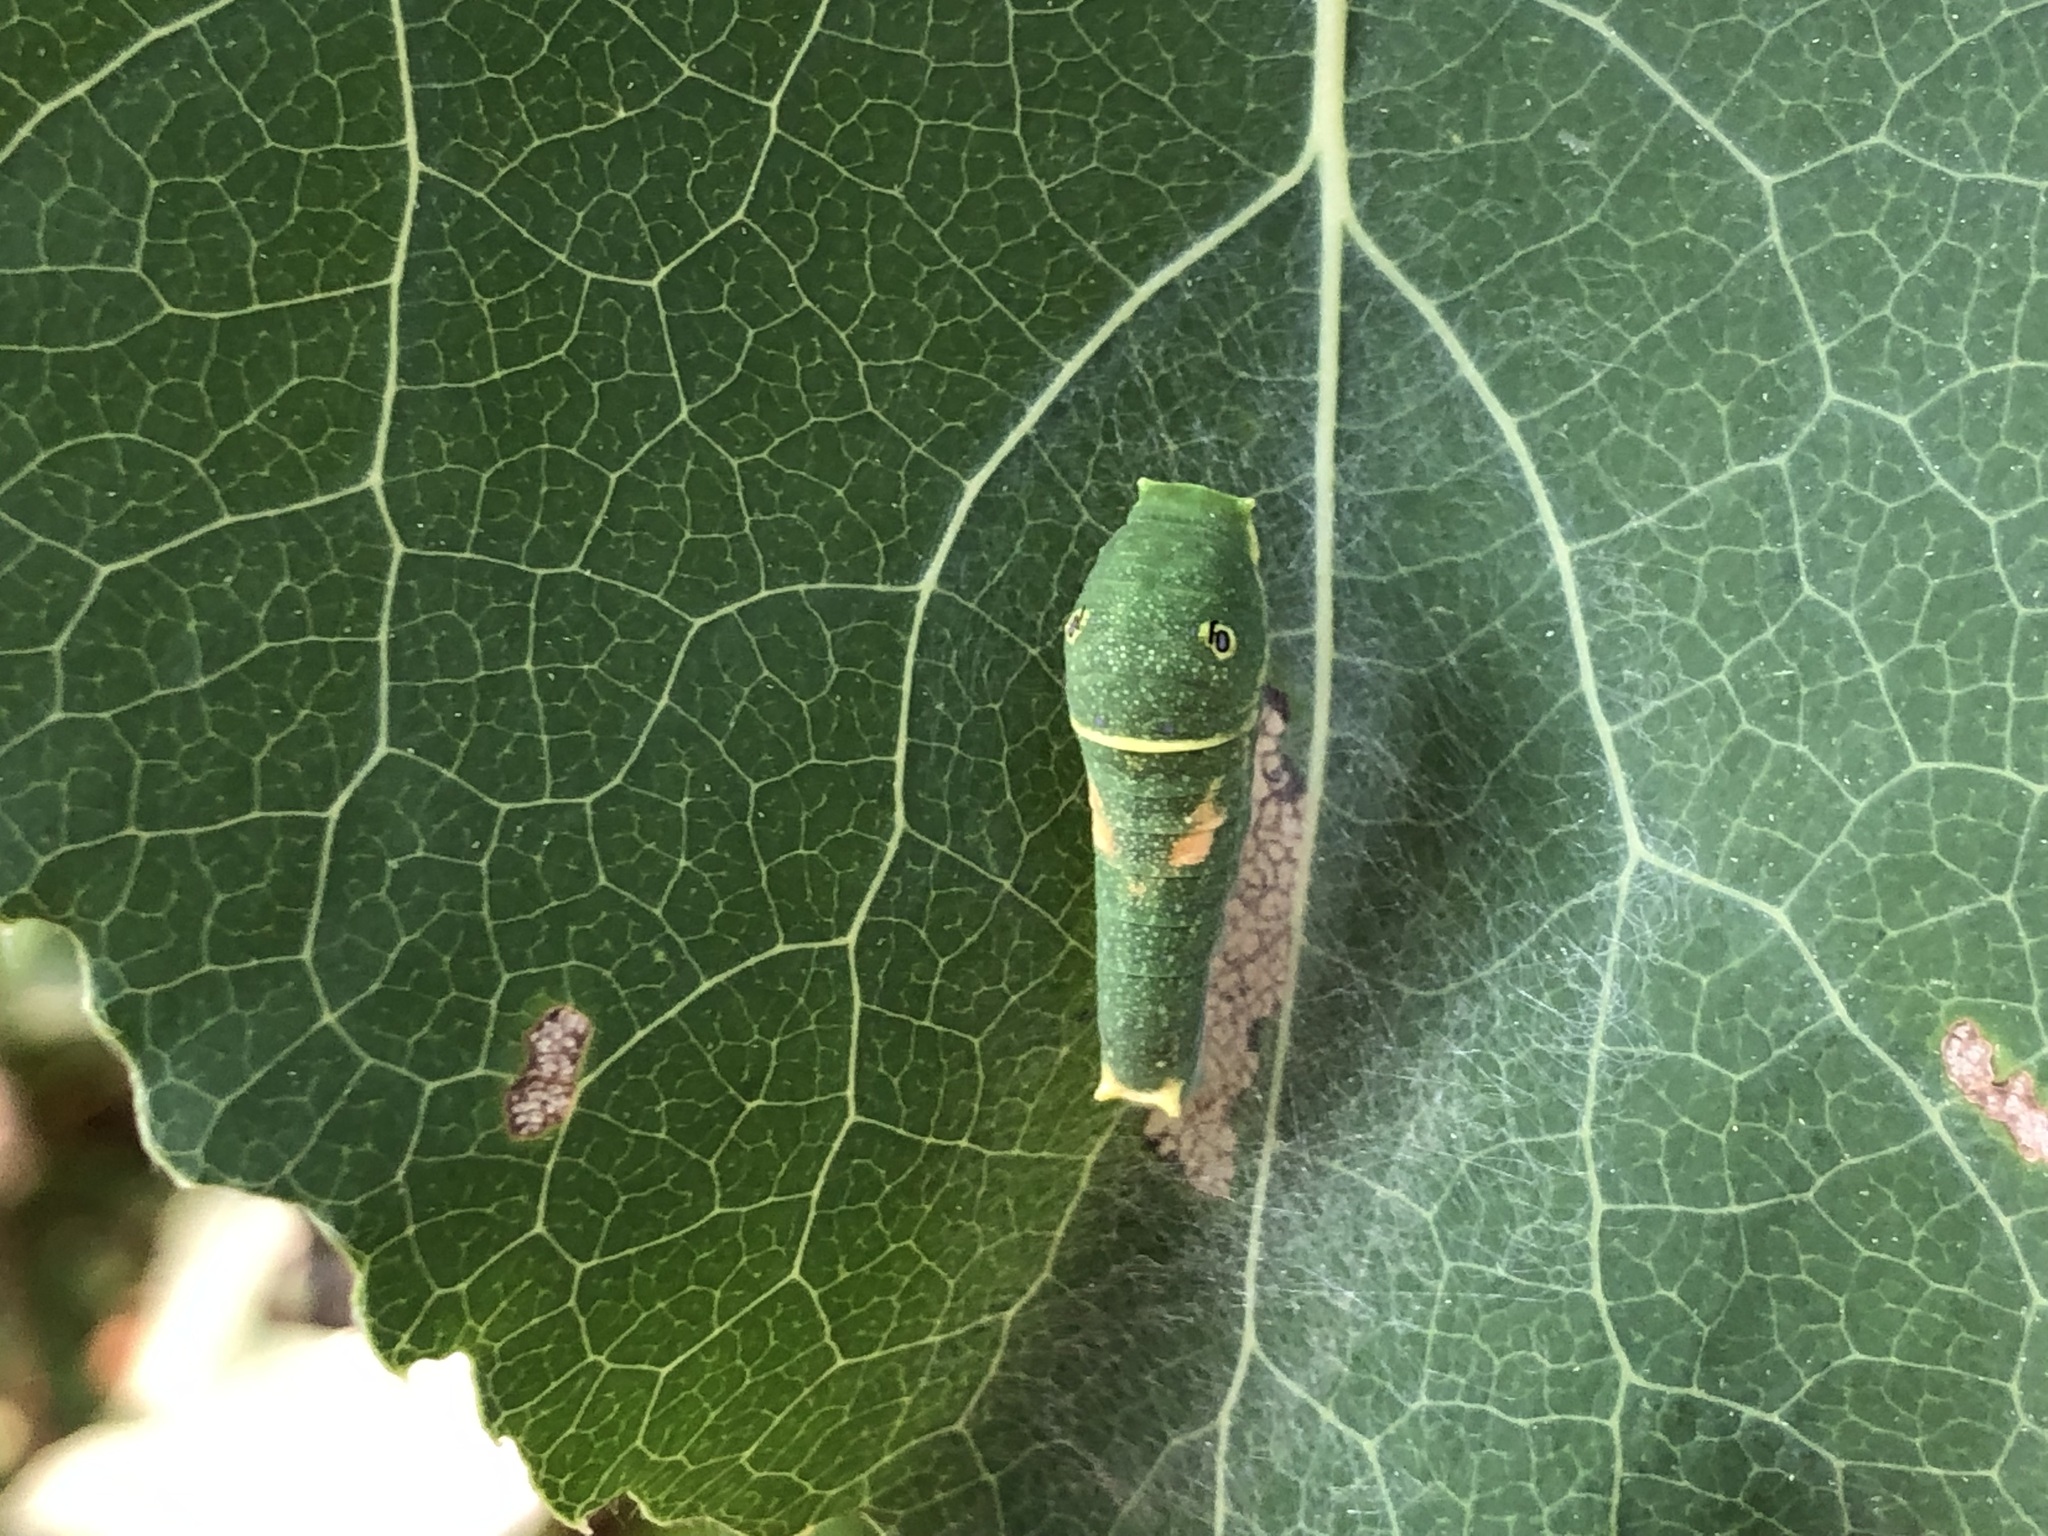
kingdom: Animalia
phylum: Arthropoda
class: Insecta
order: Lepidoptera
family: Papilionidae
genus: Papilio
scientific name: Papilio canadensis
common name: Canadian tiger swallowtail
